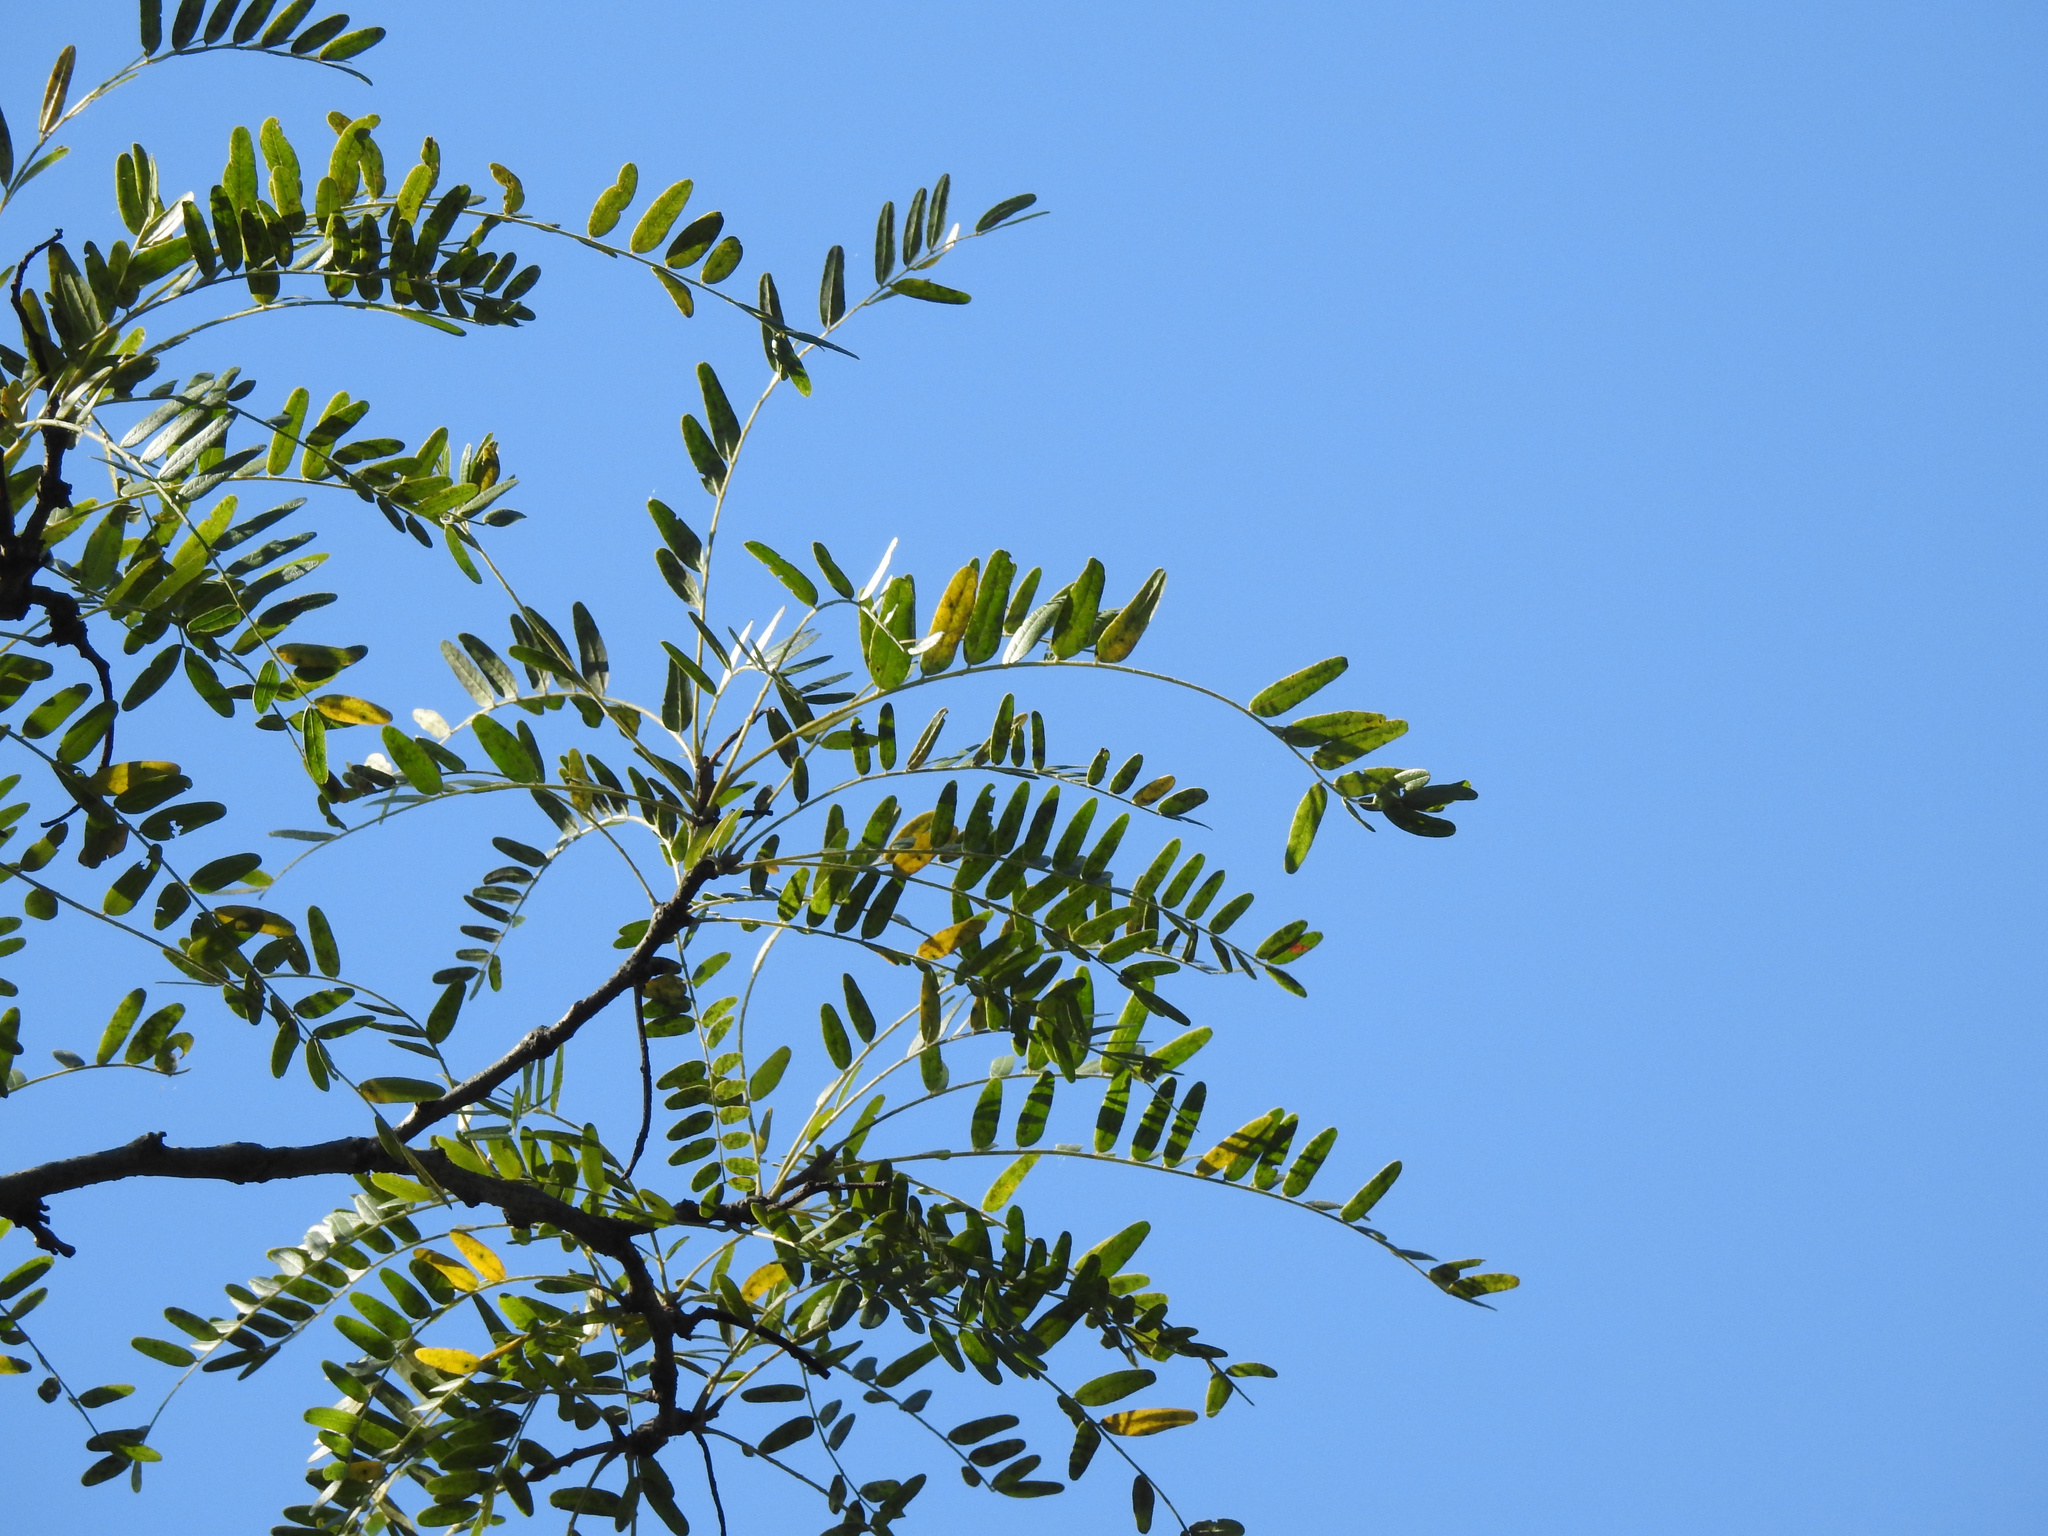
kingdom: Plantae
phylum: Tracheophyta
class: Magnoliopsida
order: Fabales
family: Fabaceae
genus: Gleditsia
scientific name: Gleditsia triacanthos
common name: Common honeylocust
